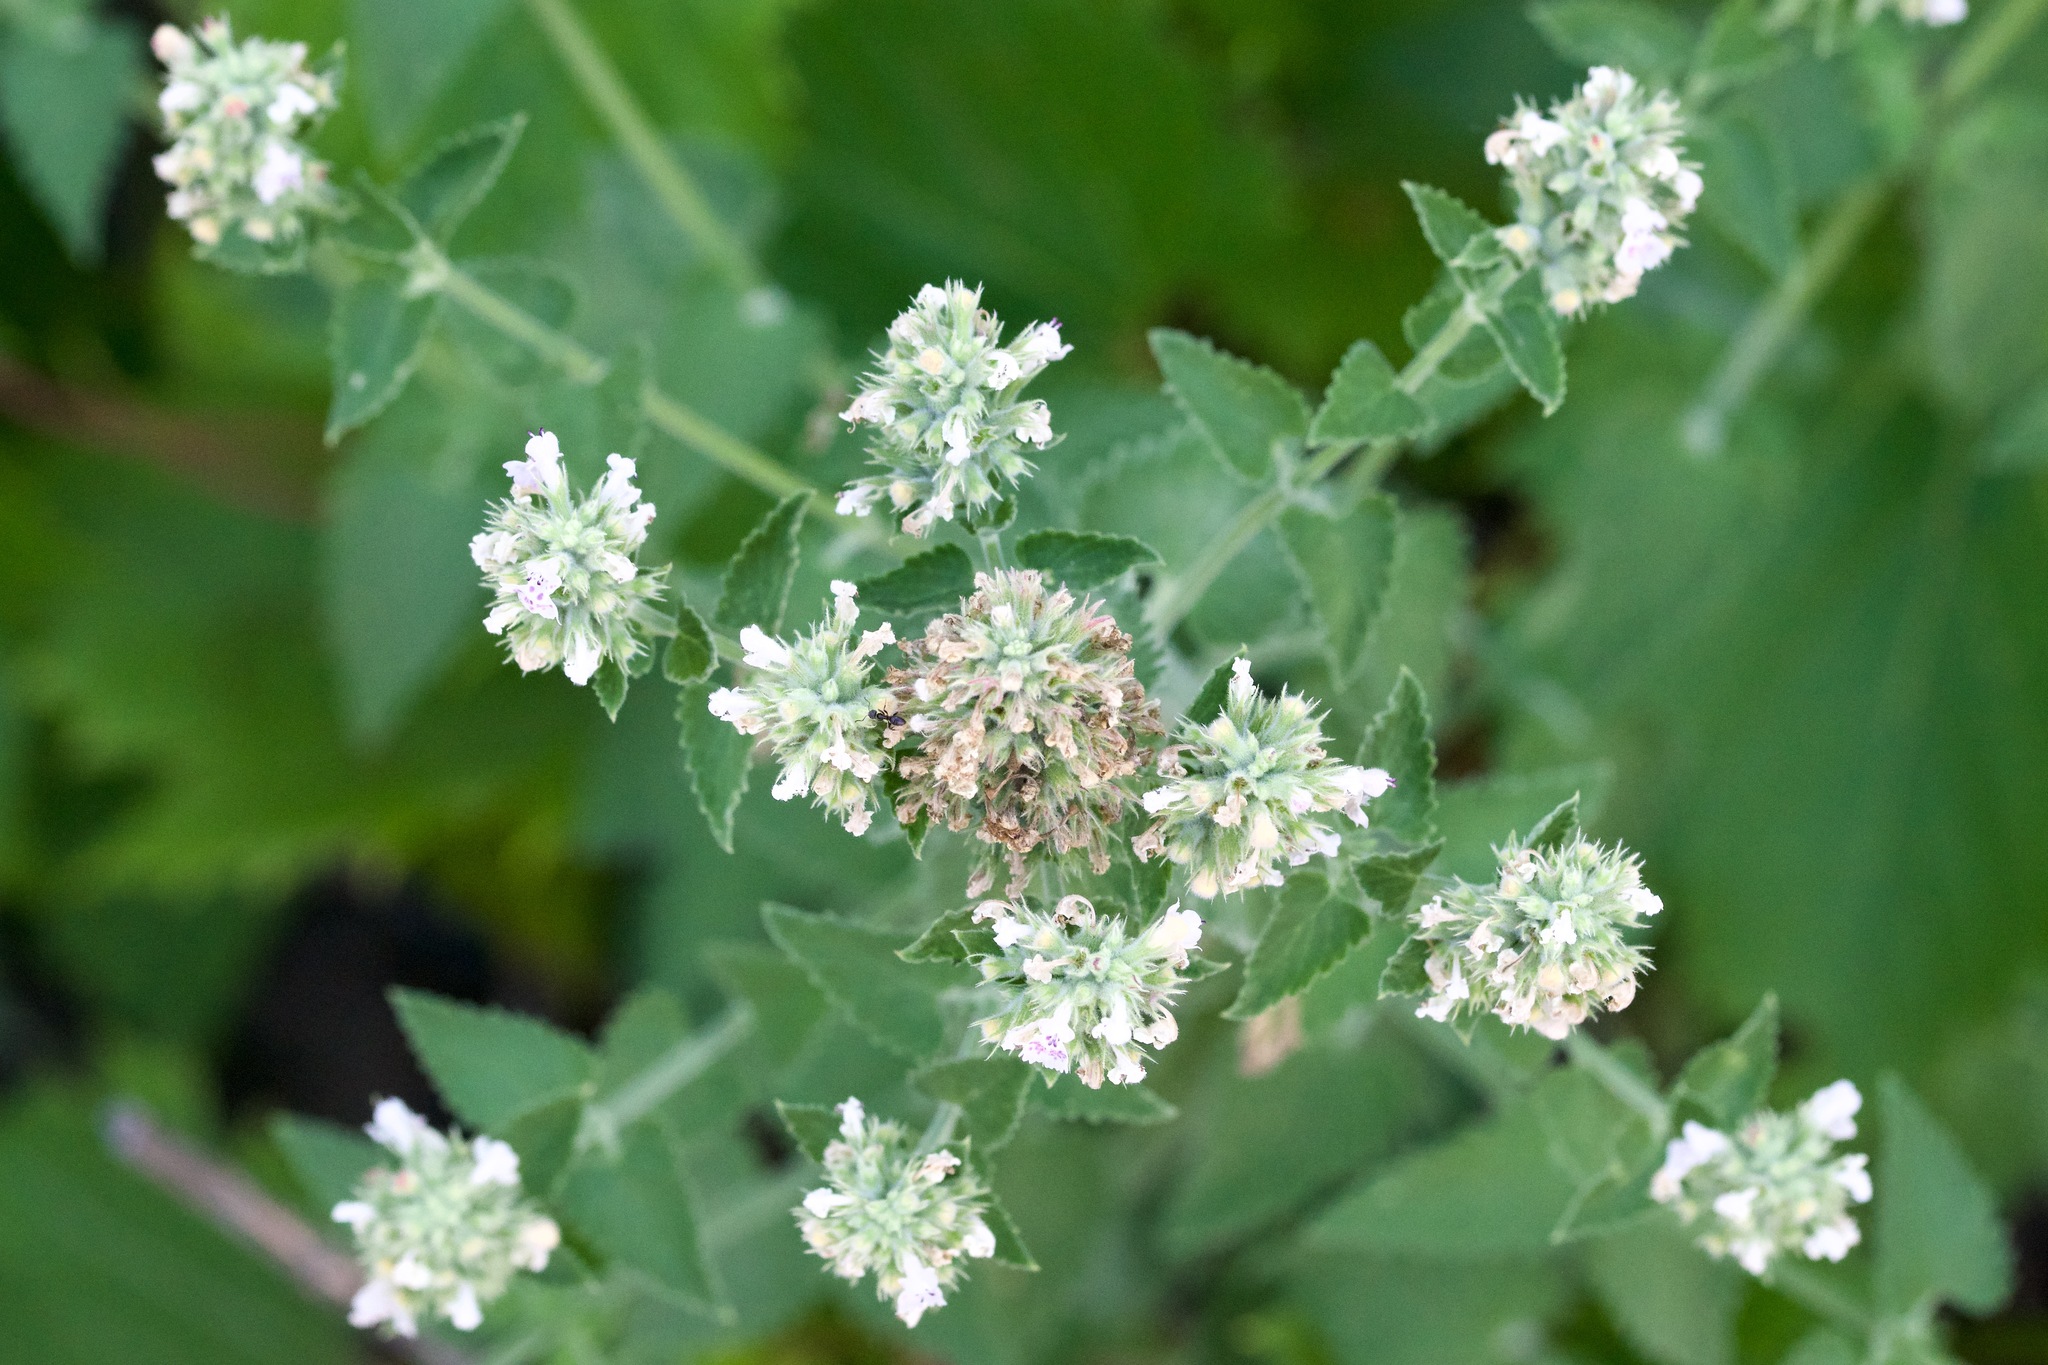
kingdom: Plantae
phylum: Tracheophyta
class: Magnoliopsida
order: Lamiales
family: Lamiaceae
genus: Nepeta
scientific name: Nepeta cataria
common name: Catnip
